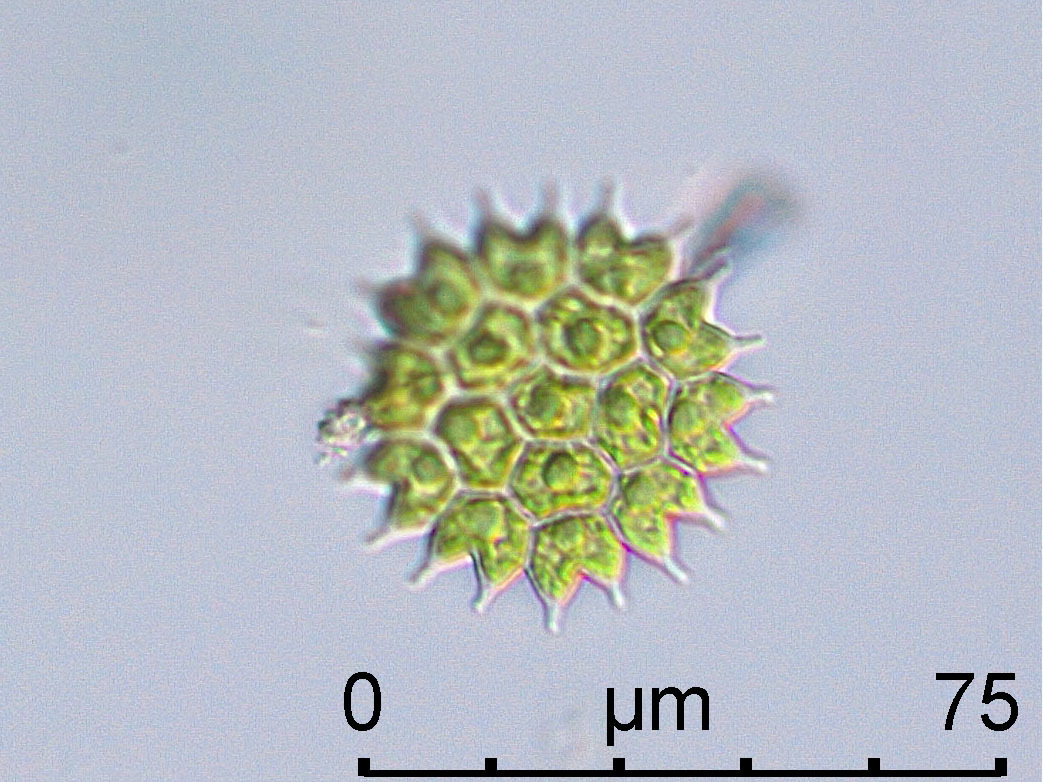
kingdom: Plantae
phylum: Chlorophyta
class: Chlorophyceae
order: Sphaeropleales
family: Hydrodictyaceae
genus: Pseudopediastrum
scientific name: Pseudopediastrum boryanum
